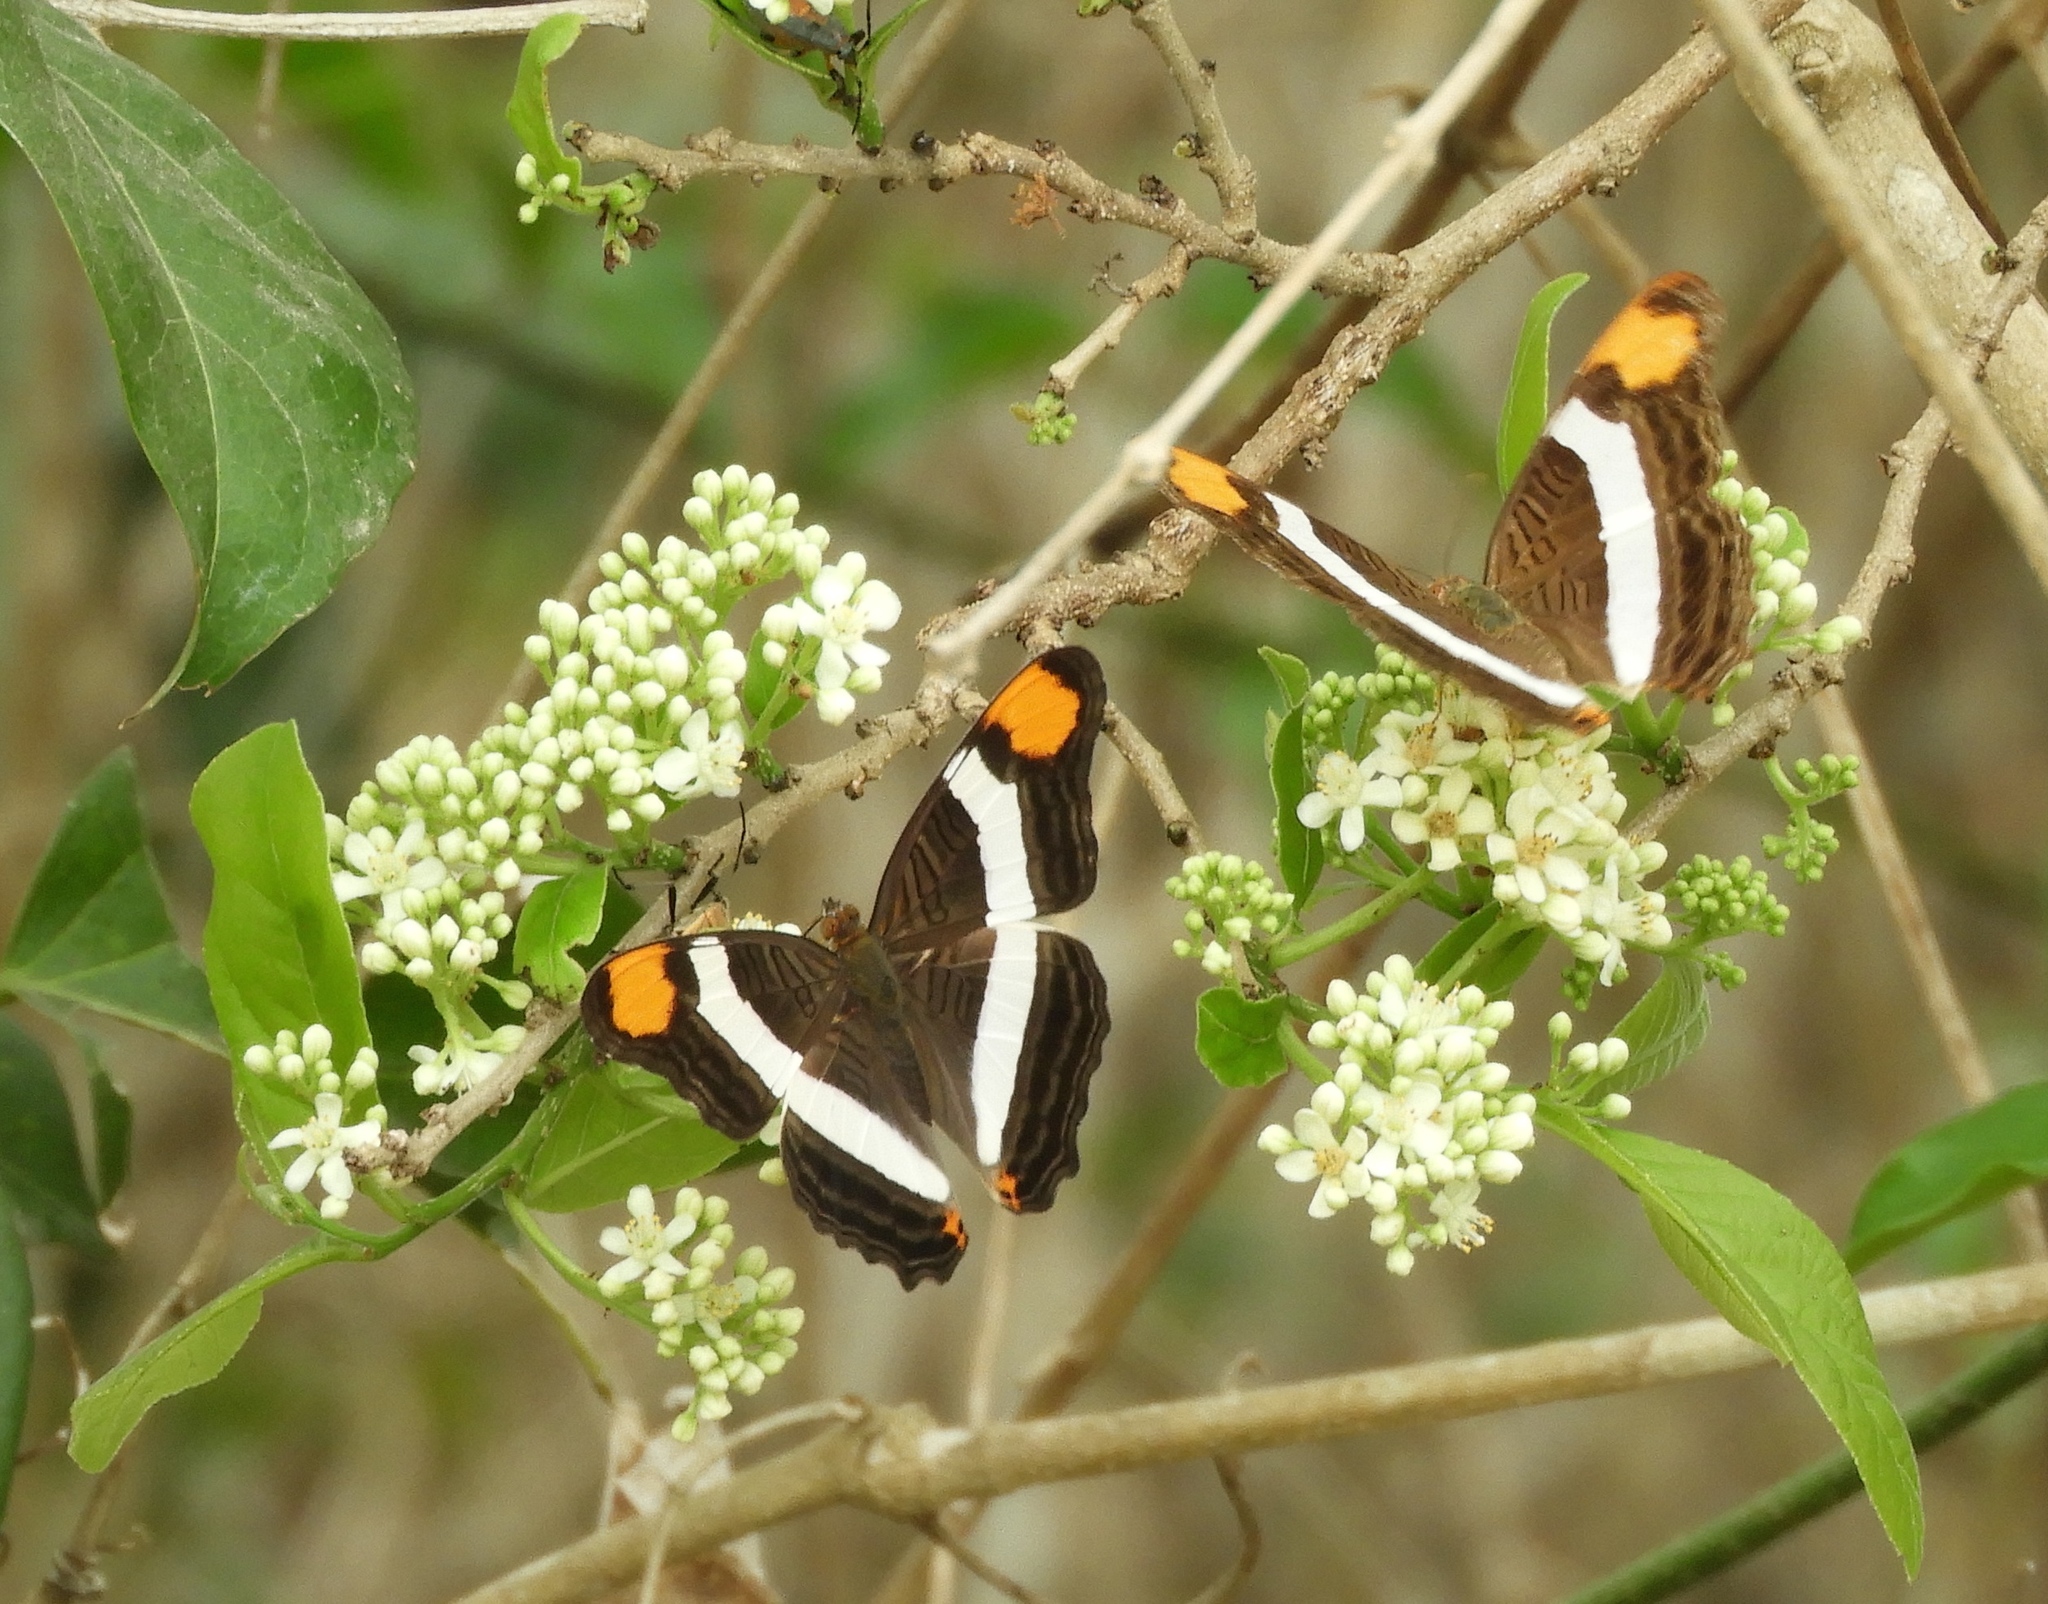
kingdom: Animalia
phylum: Arthropoda
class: Insecta
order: Lepidoptera
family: Nymphalidae
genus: Limenitis
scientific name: Limenitis
